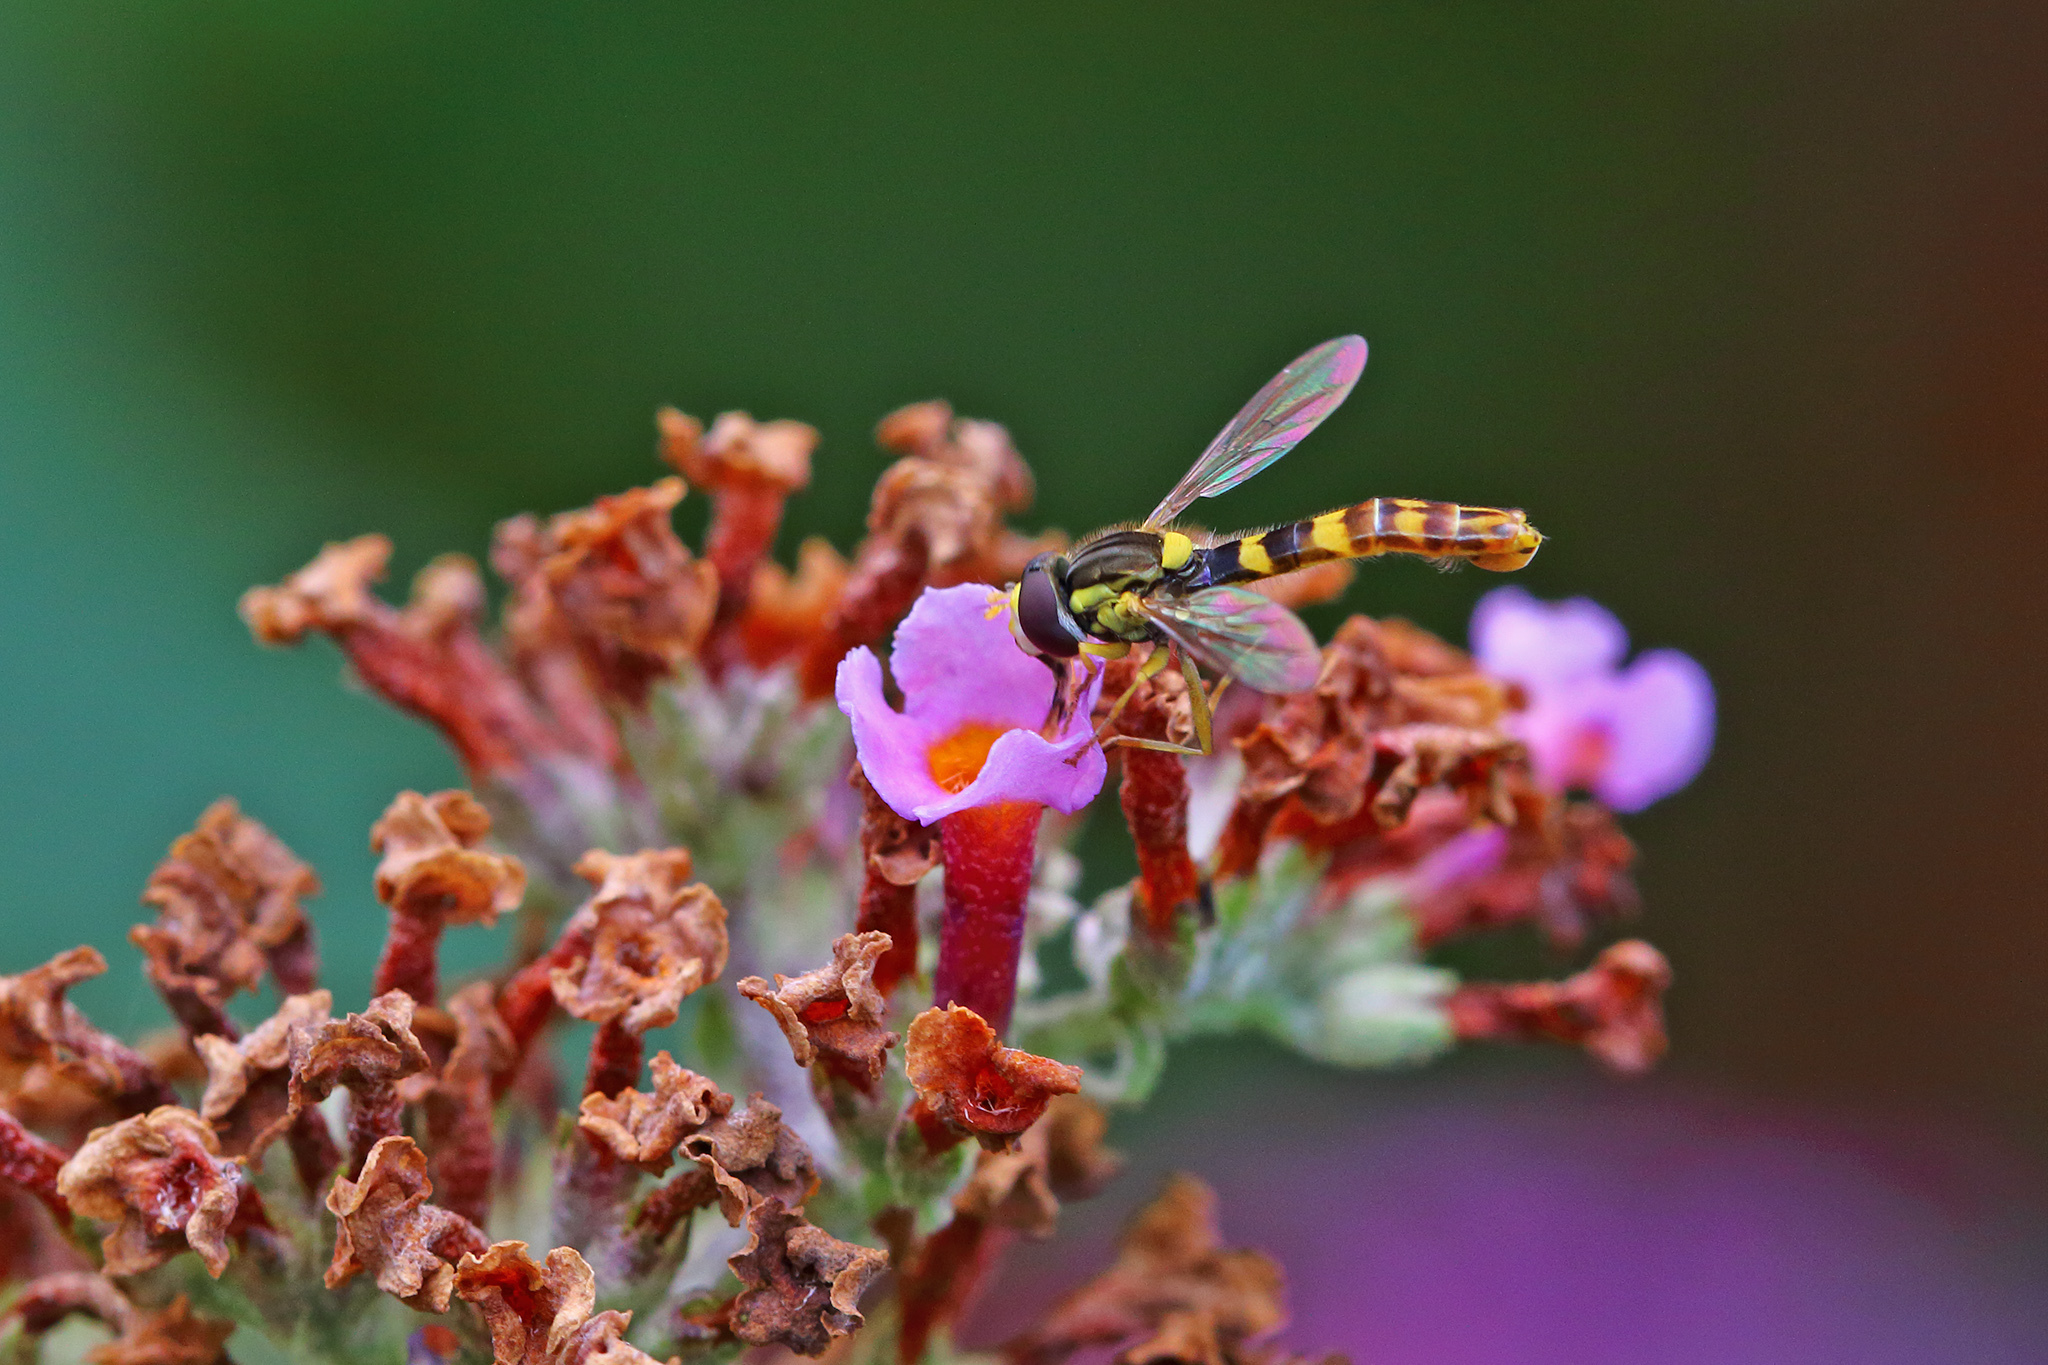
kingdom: Animalia
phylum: Arthropoda
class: Insecta
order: Diptera
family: Syrphidae
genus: Sphaerophoria
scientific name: Sphaerophoria scripta
